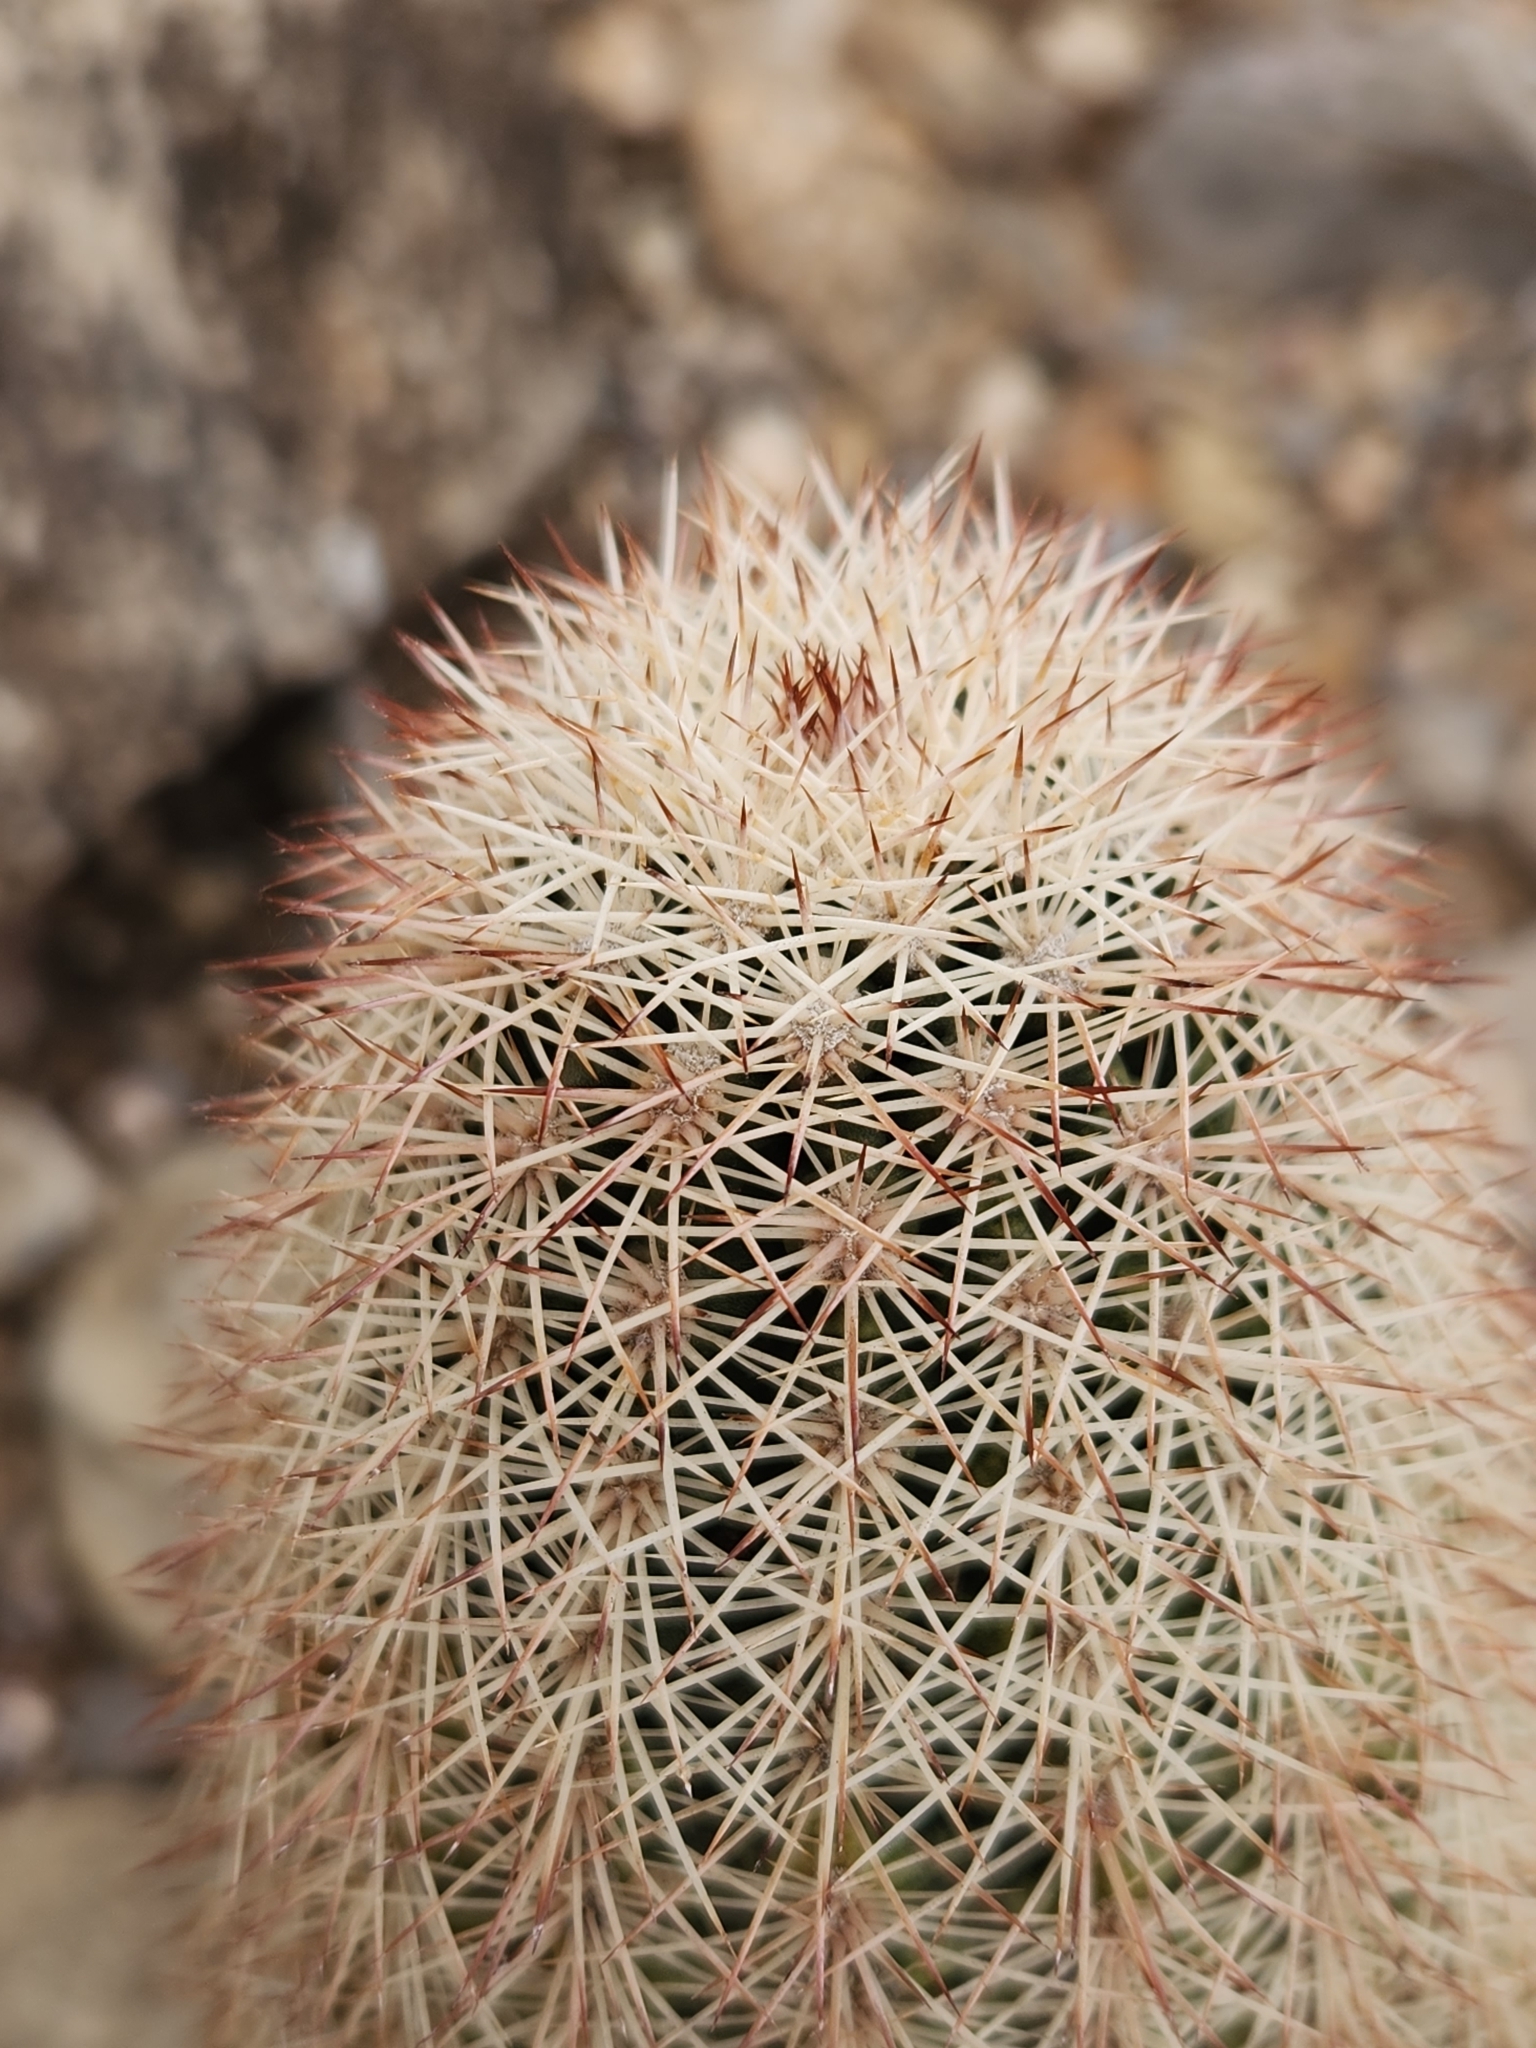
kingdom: Plantae
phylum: Tracheophyta
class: Magnoliopsida
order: Caryophyllales
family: Cactaceae
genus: Echinocereus
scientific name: Echinocereus dasyacanthus
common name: Spiny hedgehog cactus
